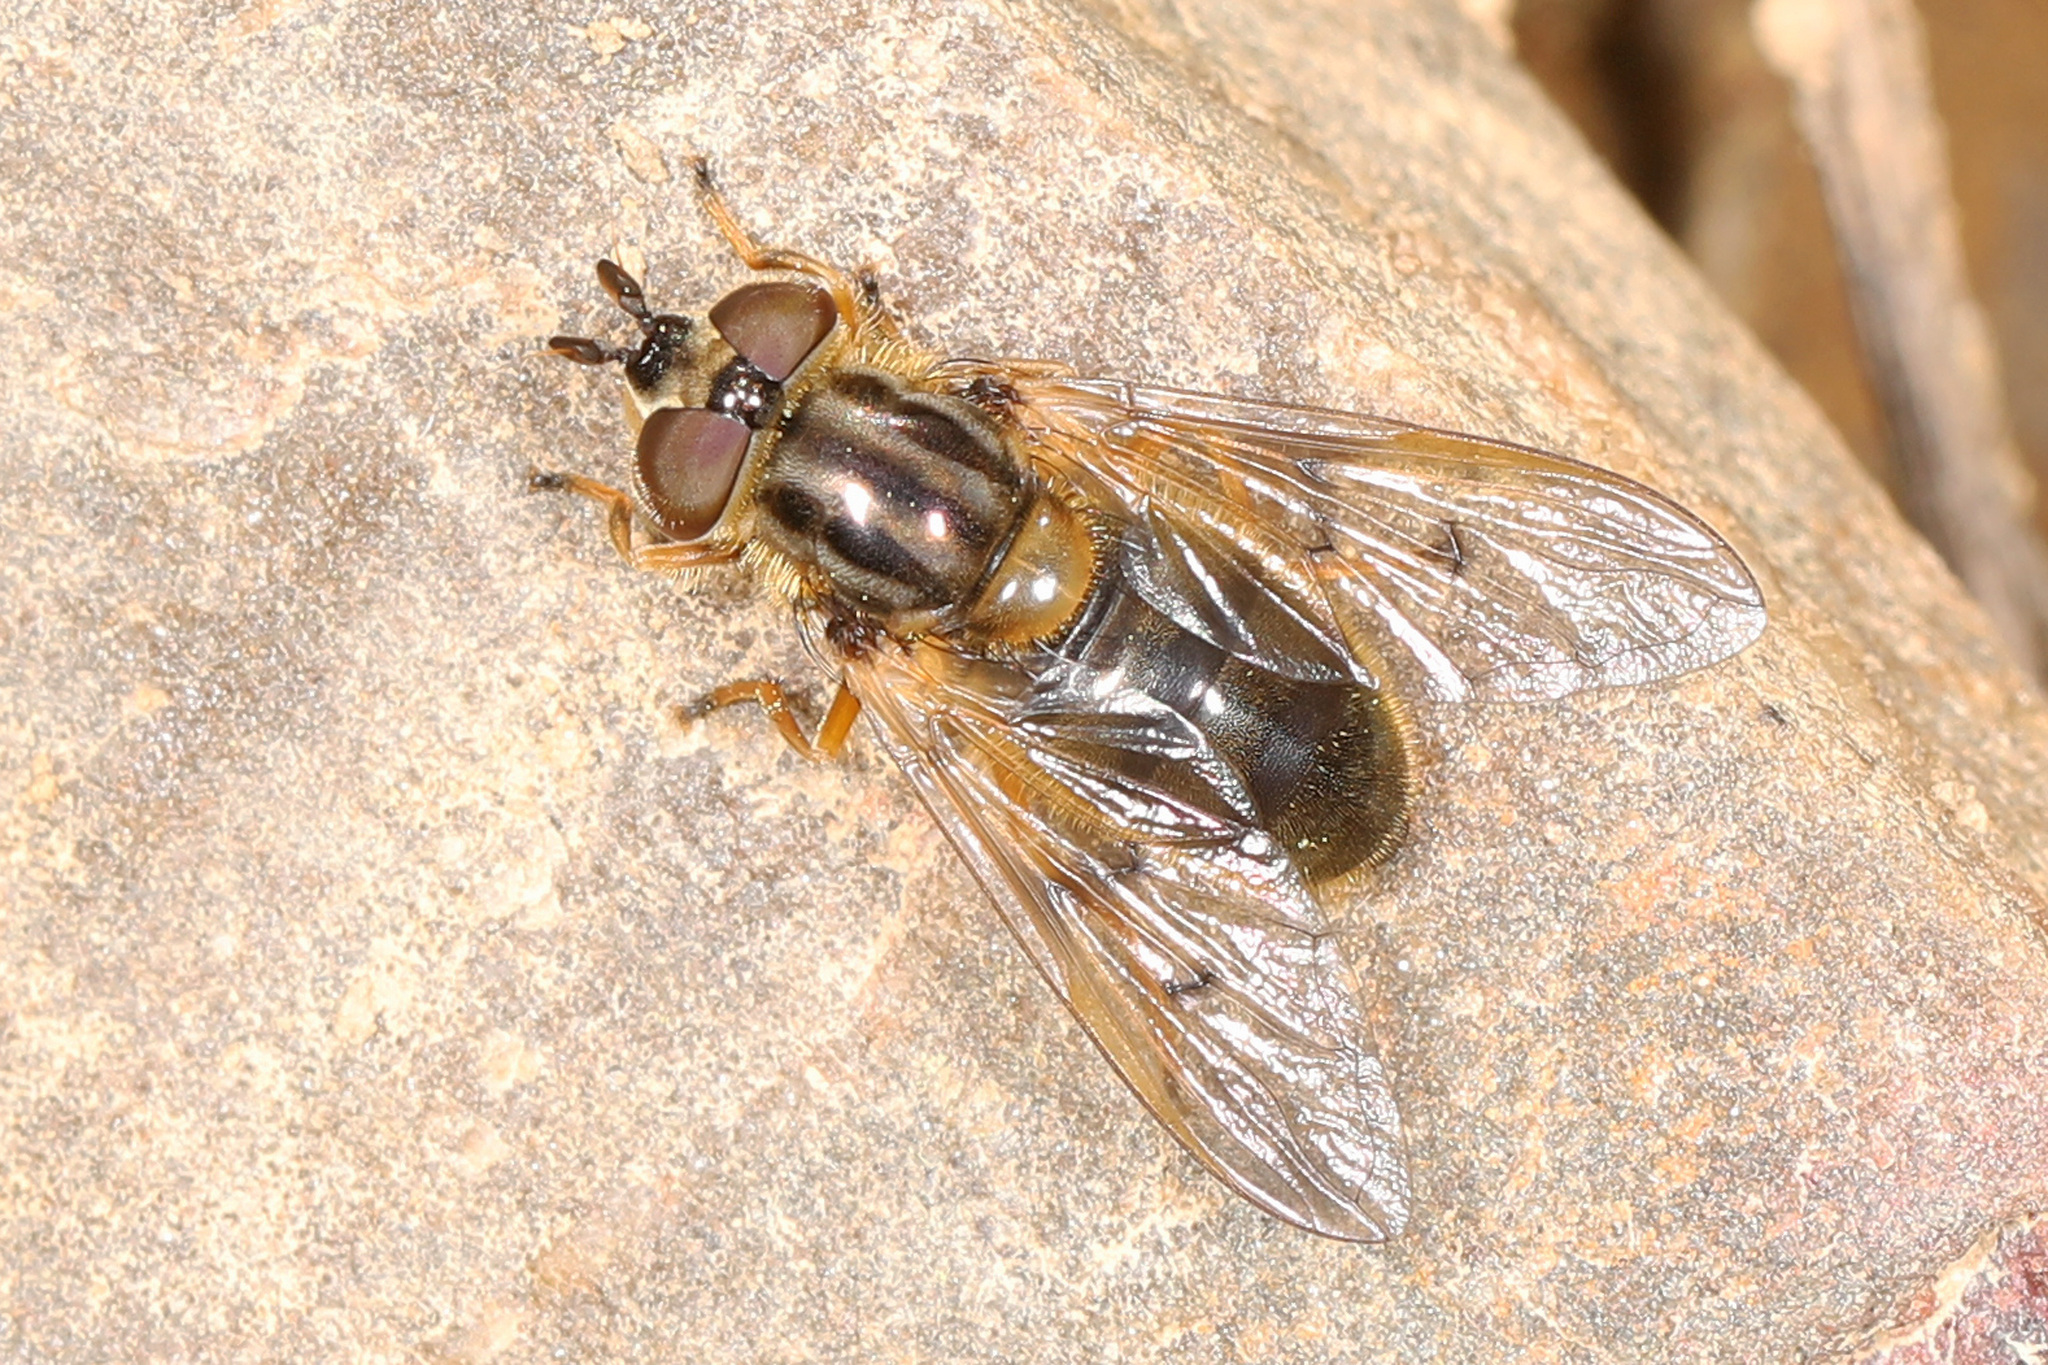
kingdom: Animalia
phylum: Arthropoda
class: Insecta
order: Diptera
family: Syrphidae
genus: Ferdinandea
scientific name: Ferdinandea buccata
